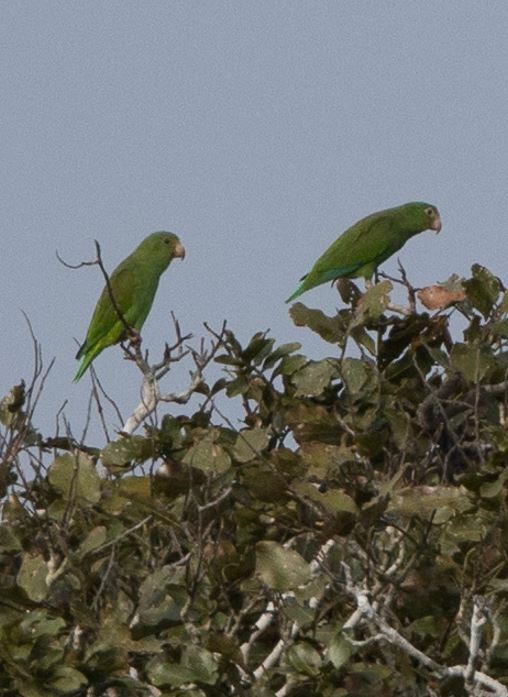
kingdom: Animalia
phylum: Chordata
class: Aves
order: Psittaciformes
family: Psittacidae
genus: Brotogeris
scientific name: Brotogeris cyanoptera
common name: Cobalt-winged parakeet
